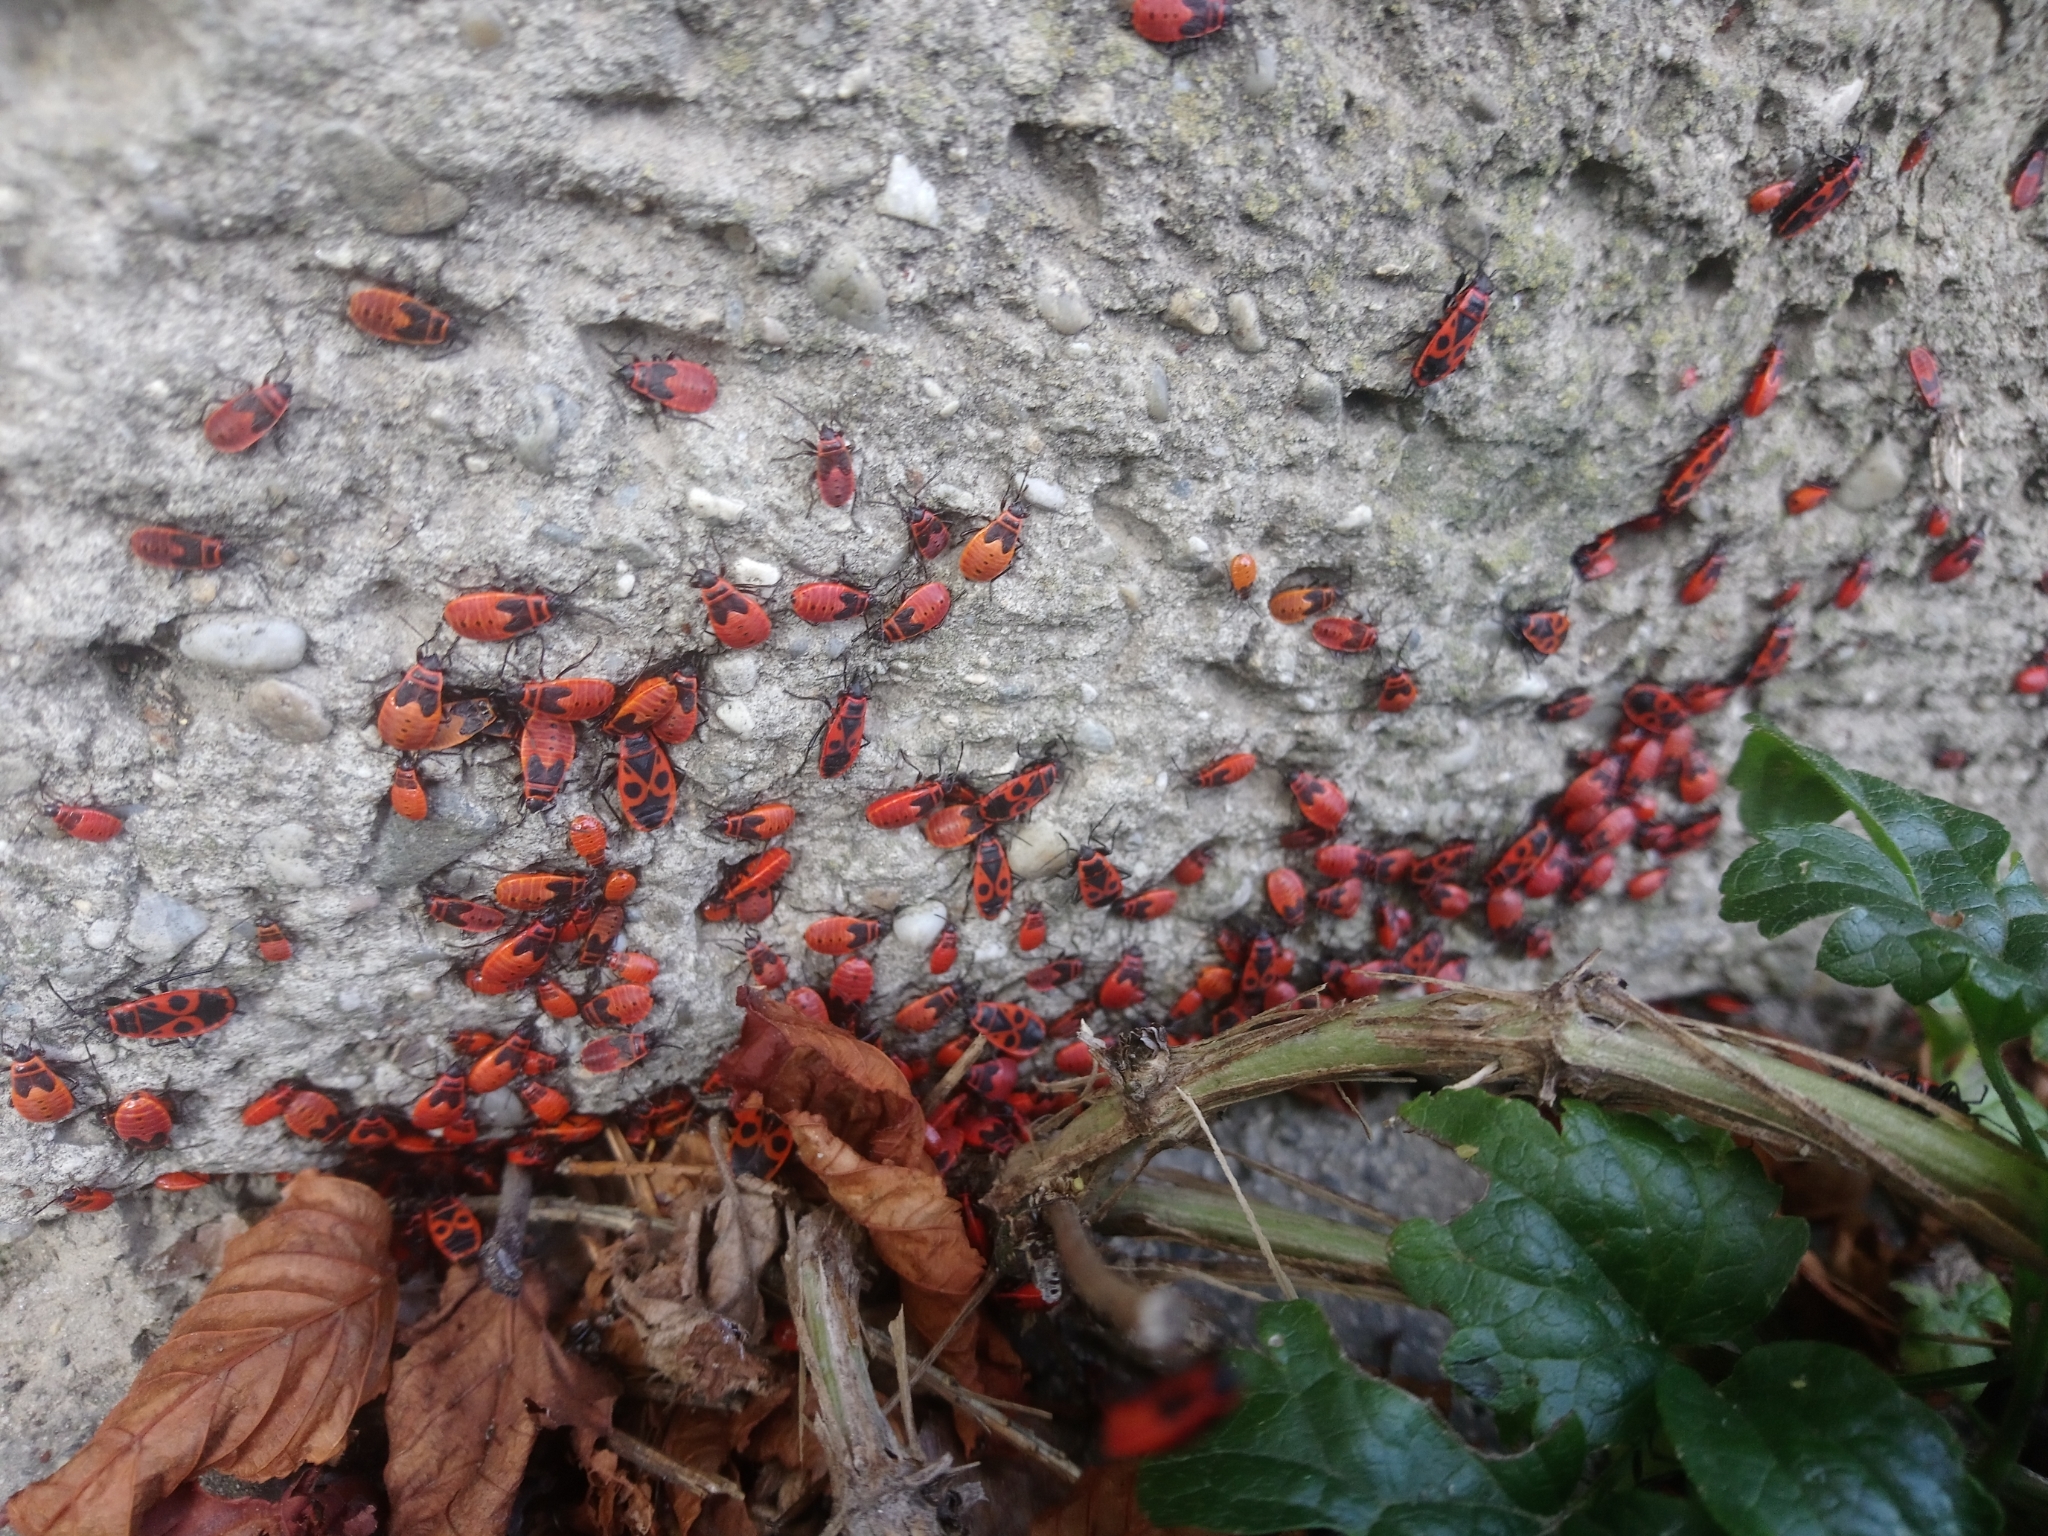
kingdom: Animalia
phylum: Arthropoda
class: Insecta
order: Hemiptera
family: Pyrrhocoridae
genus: Pyrrhocoris
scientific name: Pyrrhocoris apterus
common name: Firebug
